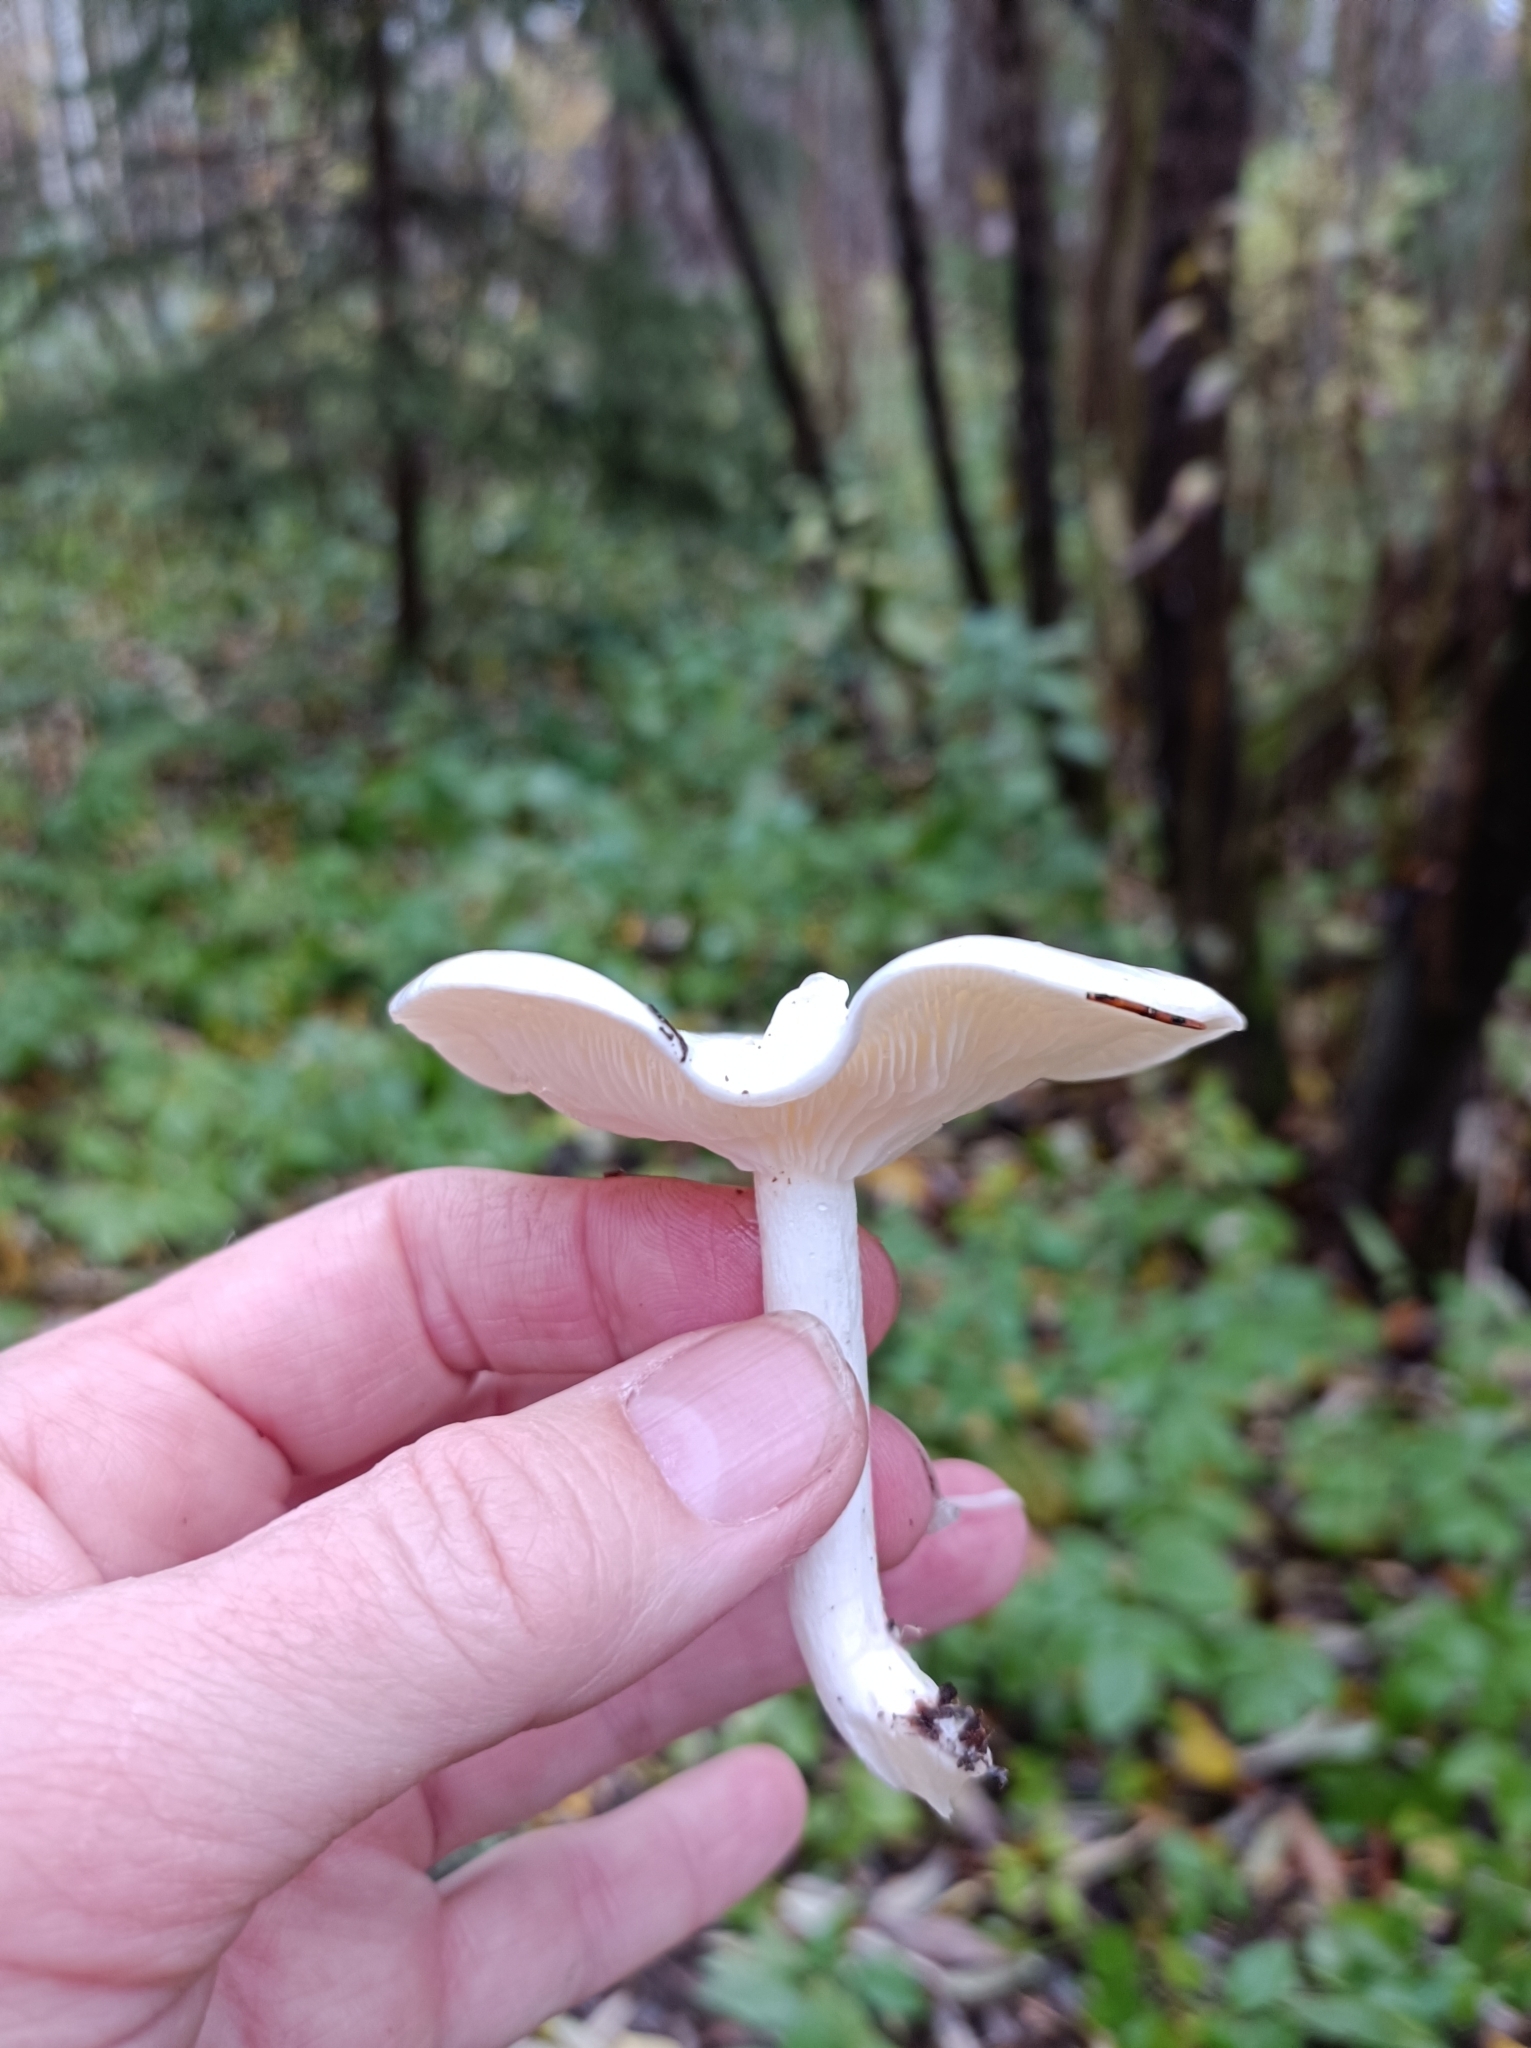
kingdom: Fungi
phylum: Basidiomycota
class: Agaricomycetes
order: Agaricales
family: Tricholomataceae
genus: Leucocybe
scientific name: Leucocybe connata
